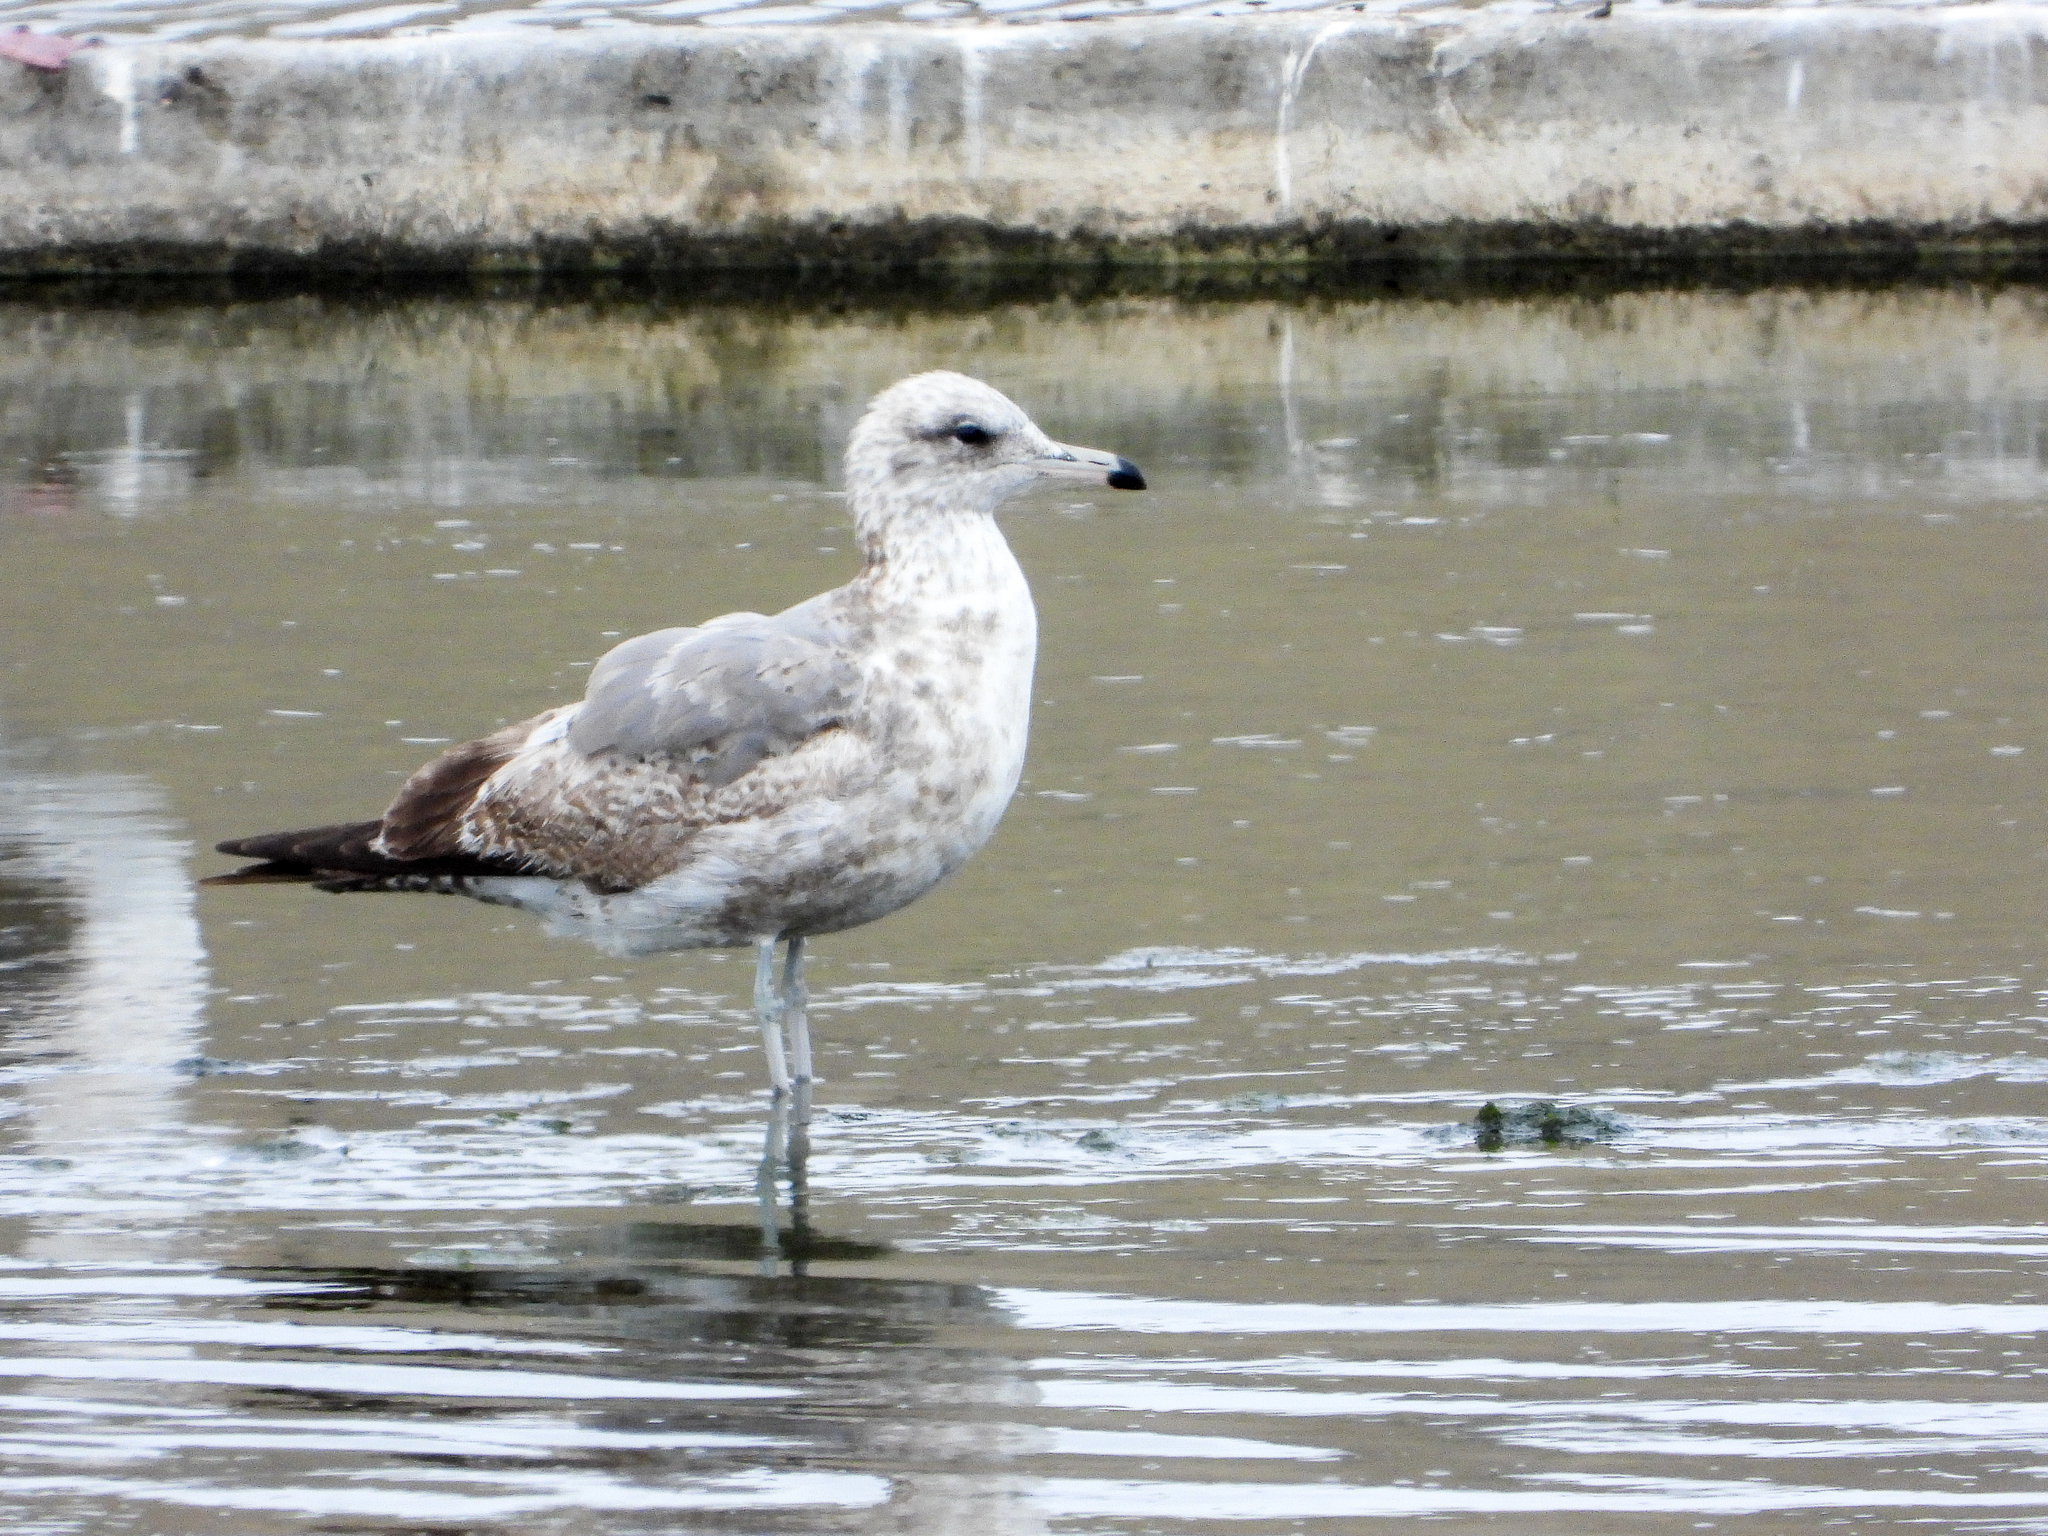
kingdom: Animalia
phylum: Chordata
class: Aves
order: Charadriiformes
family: Laridae
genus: Larus
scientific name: Larus californicus
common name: California gull
